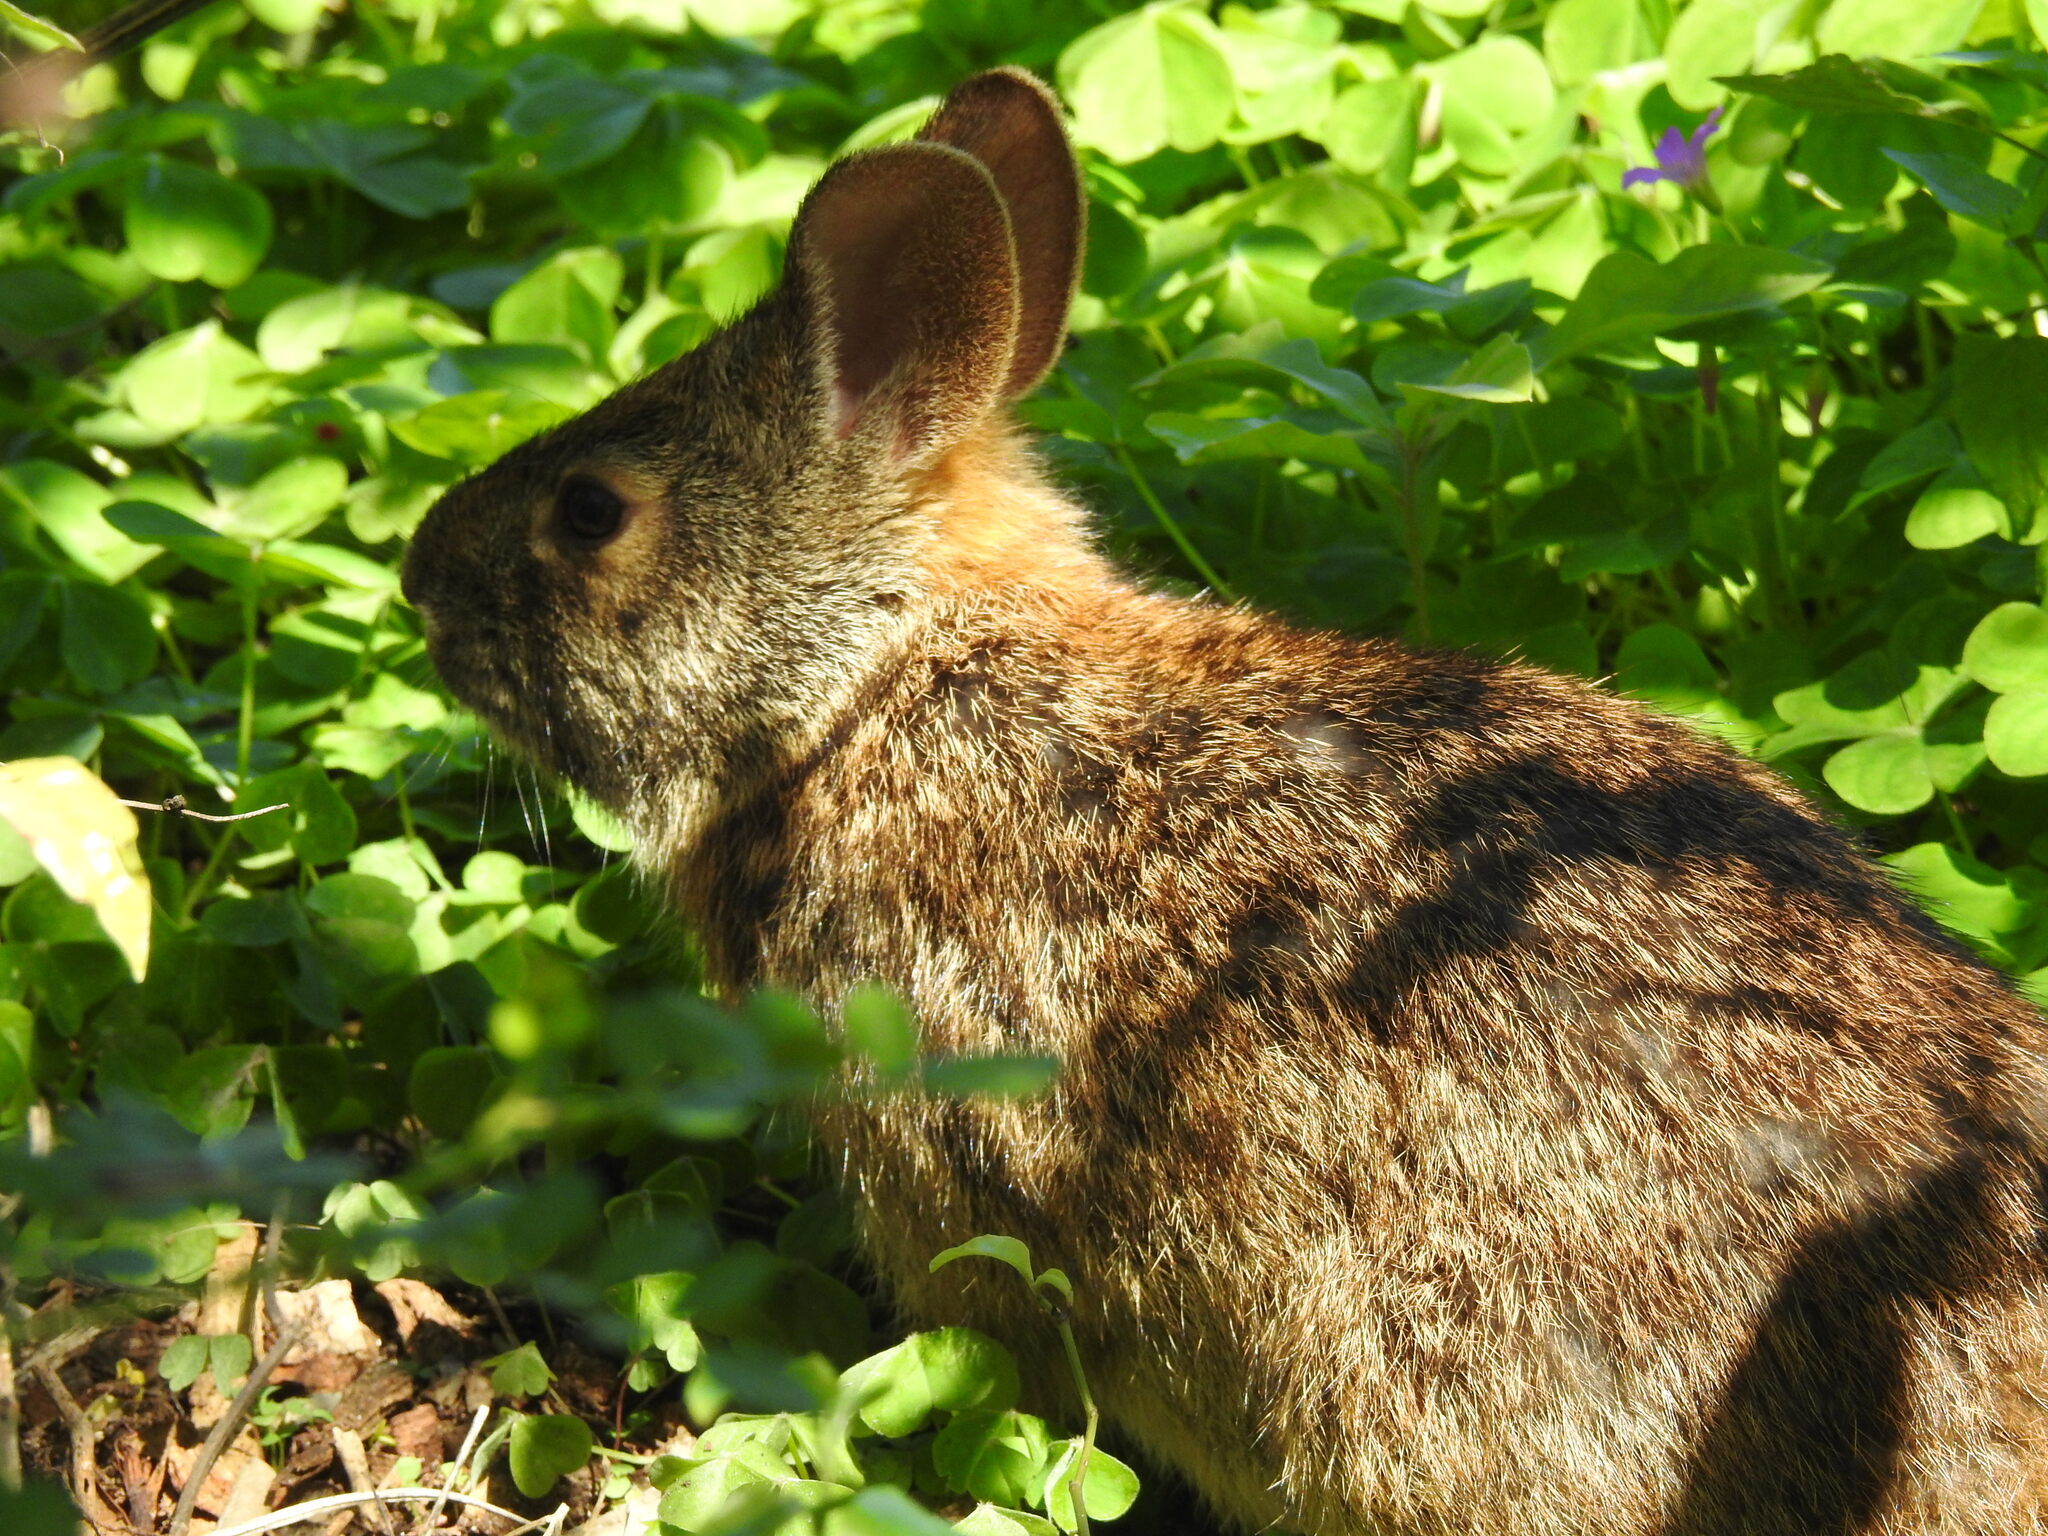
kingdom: Animalia
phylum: Chordata
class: Mammalia
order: Lagomorpha
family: Leporidae
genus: Sylvilagus
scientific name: Sylvilagus palustris
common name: Marsh rabbit
